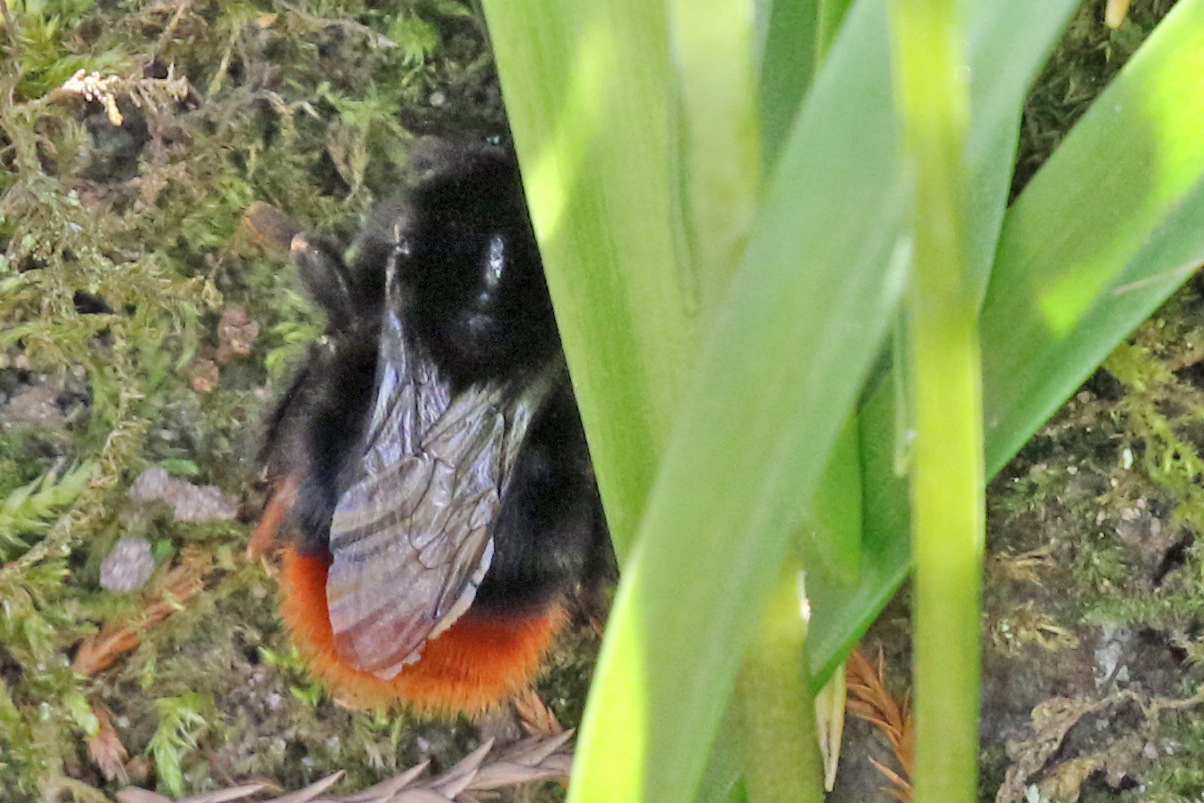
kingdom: Animalia
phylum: Arthropoda
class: Insecta
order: Hymenoptera
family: Apidae
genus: Bombus
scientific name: Bombus lapidarius
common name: Large red-tailed humble-bee
